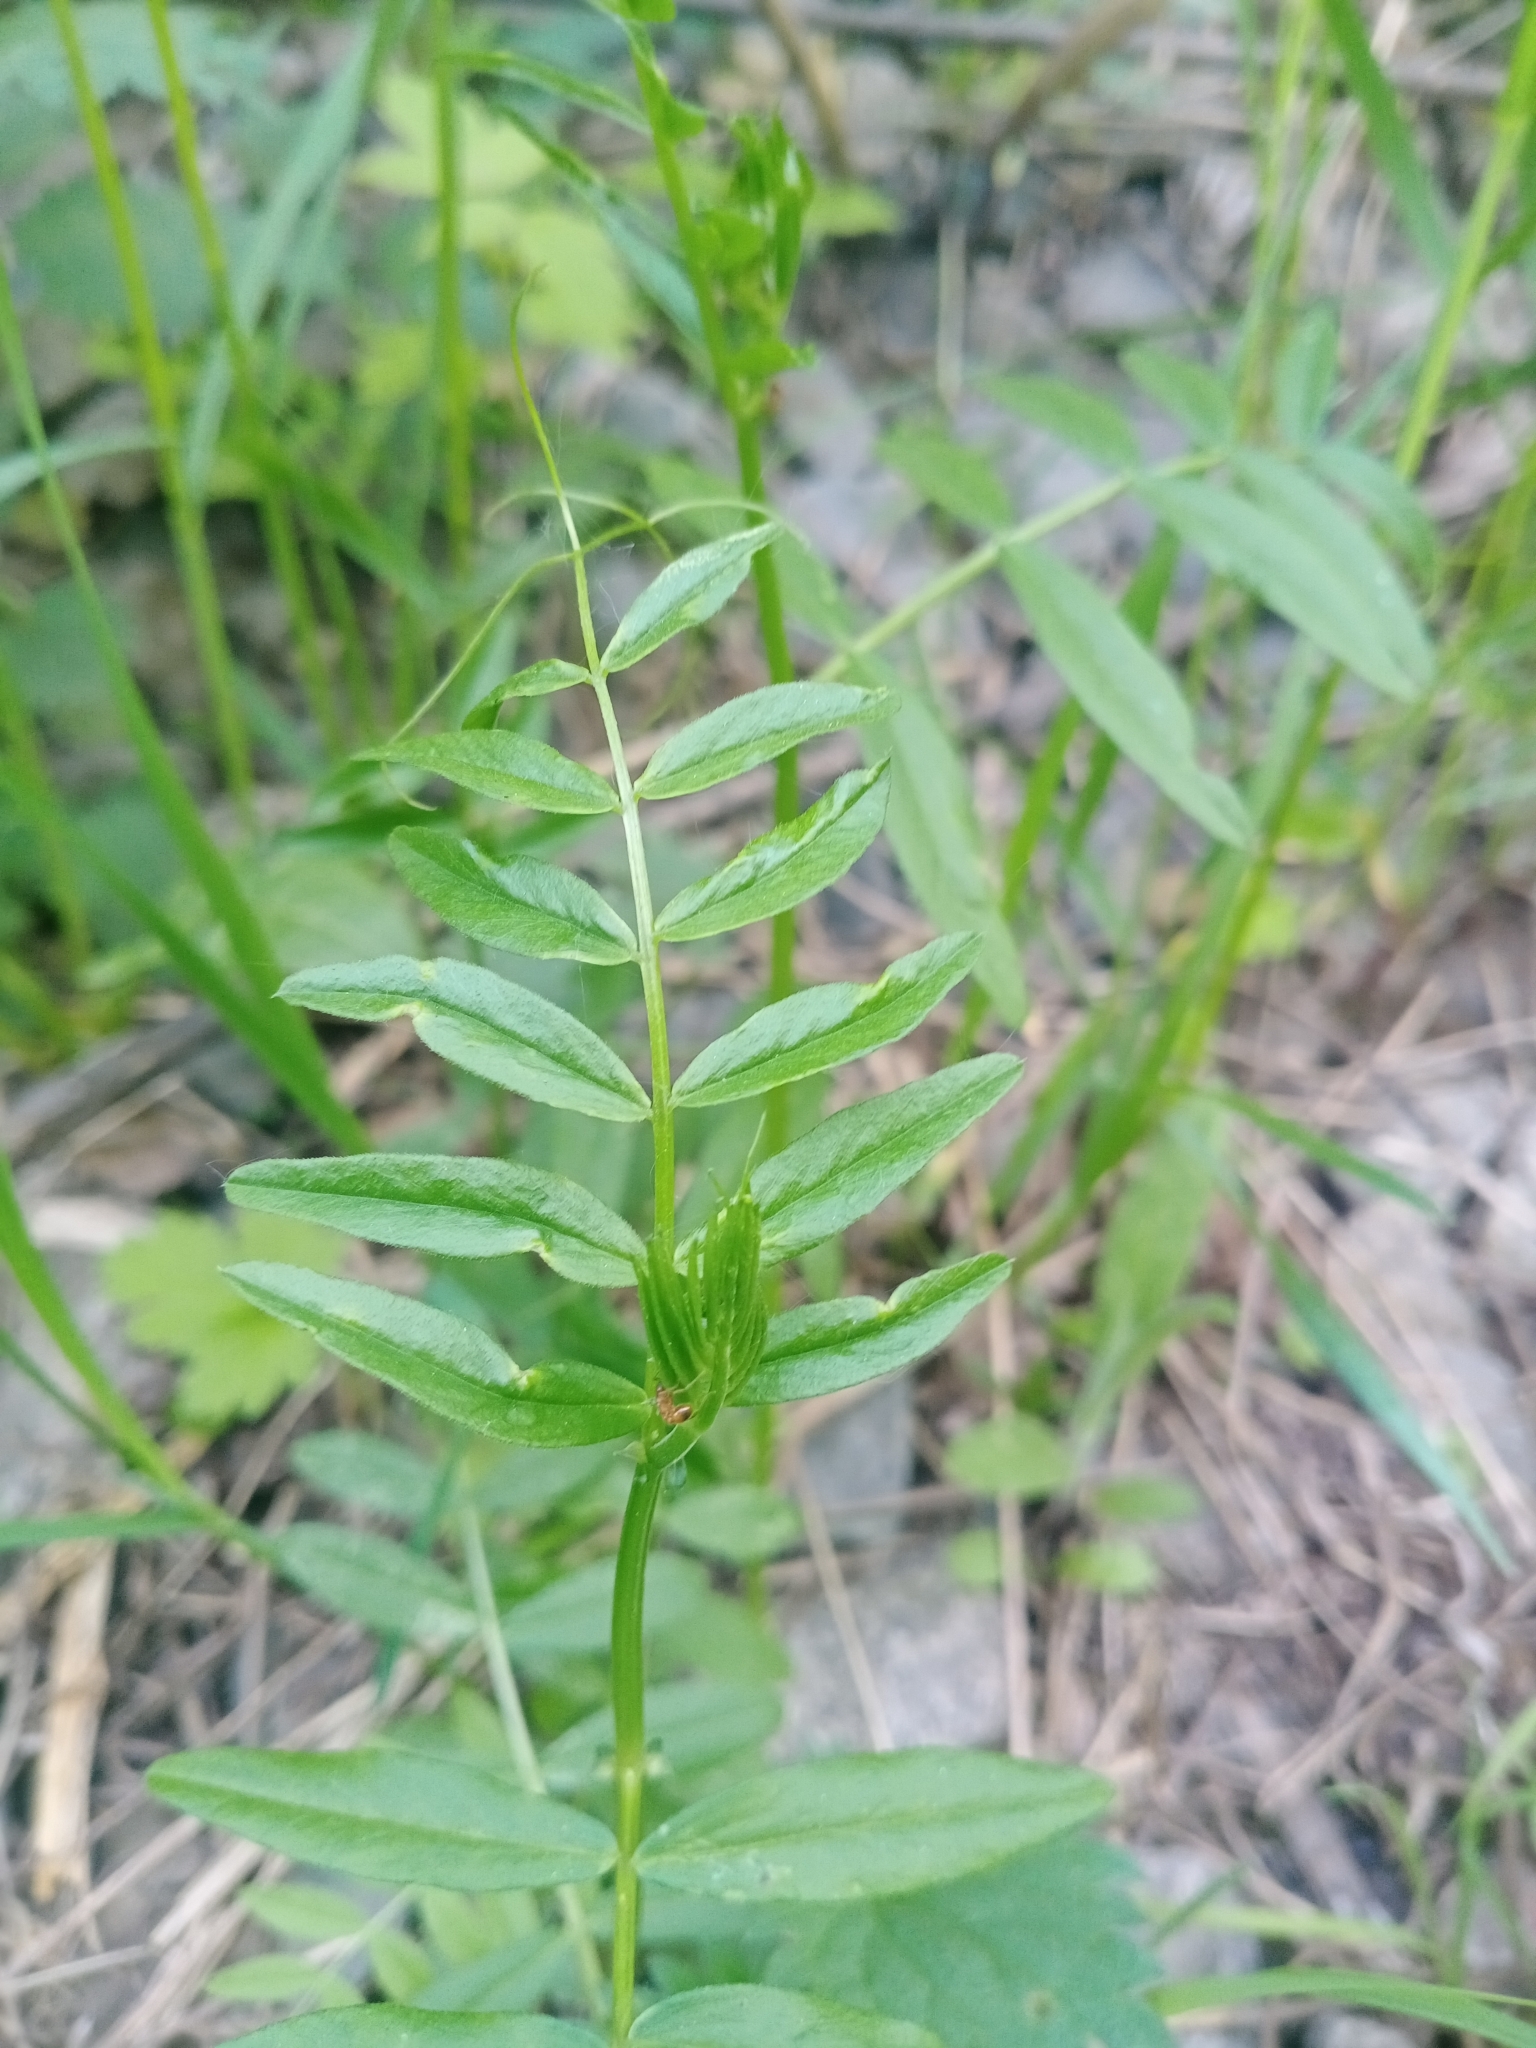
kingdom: Plantae
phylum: Tracheophyta
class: Magnoliopsida
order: Fabales
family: Fabaceae
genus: Vicia
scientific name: Vicia sepium
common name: Bush vetch
